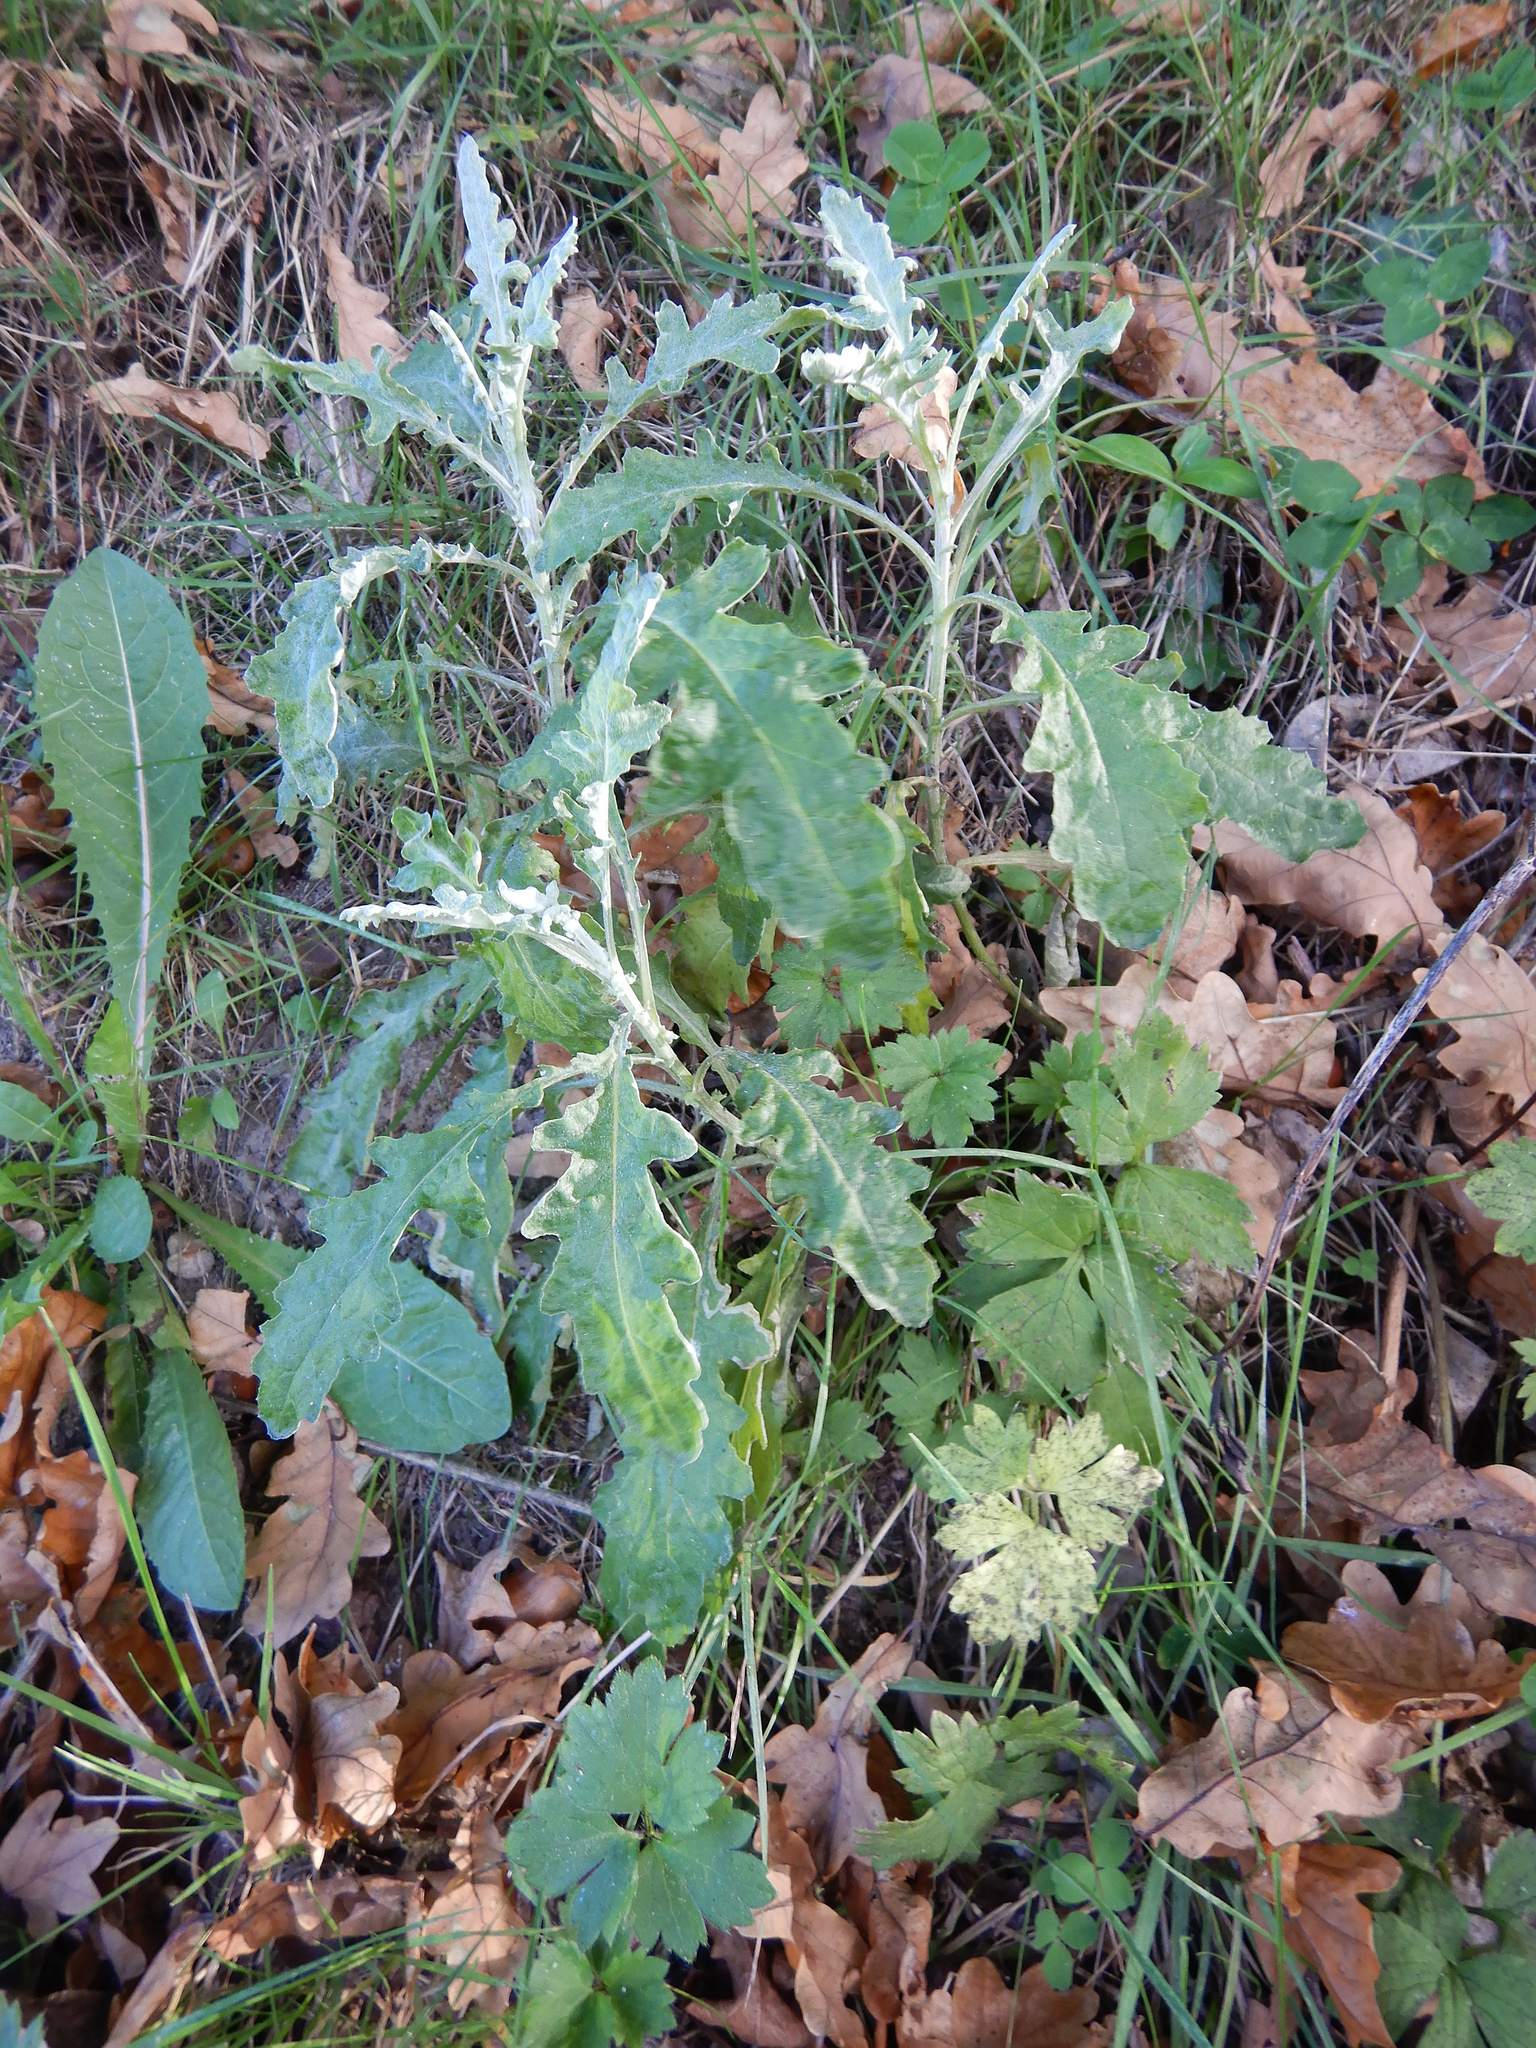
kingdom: Plantae
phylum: Tracheophyta
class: Magnoliopsida
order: Asterales
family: Asteraceae
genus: Senecio
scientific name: Senecio glomeratus
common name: Cutleaf burnweed
